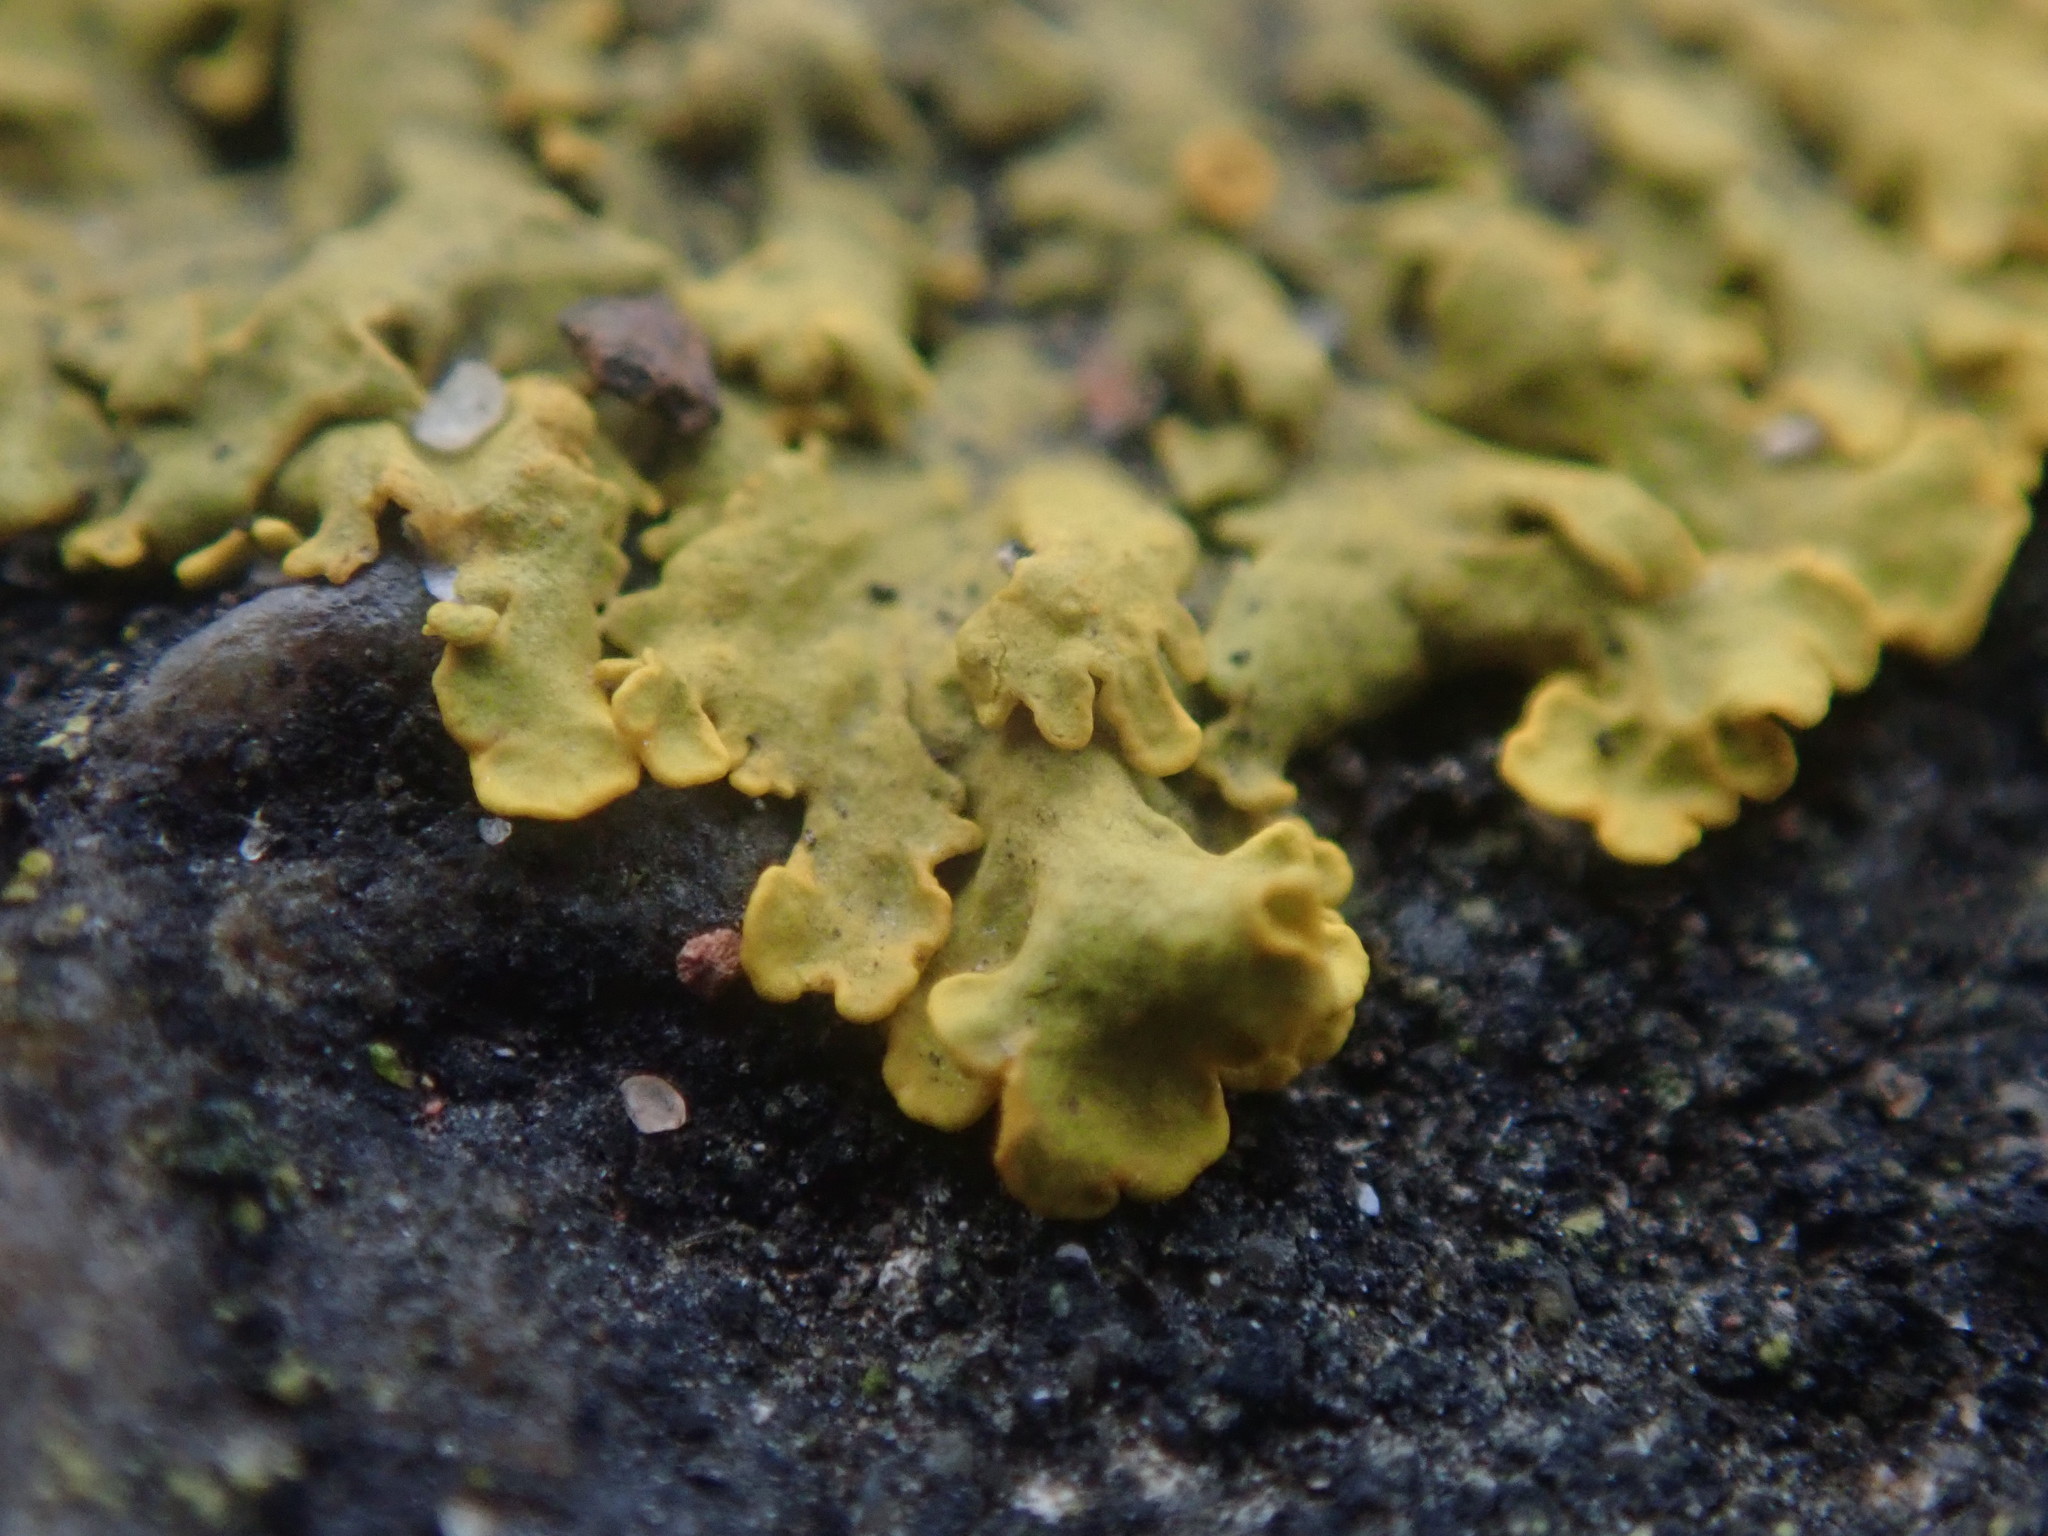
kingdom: Fungi
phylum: Ascomycota
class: Lecanoromycetes
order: Teloschistales
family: Teloschistaceae
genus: Xanthoria
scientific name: Xanthoria parietina
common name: Common orange lichen
